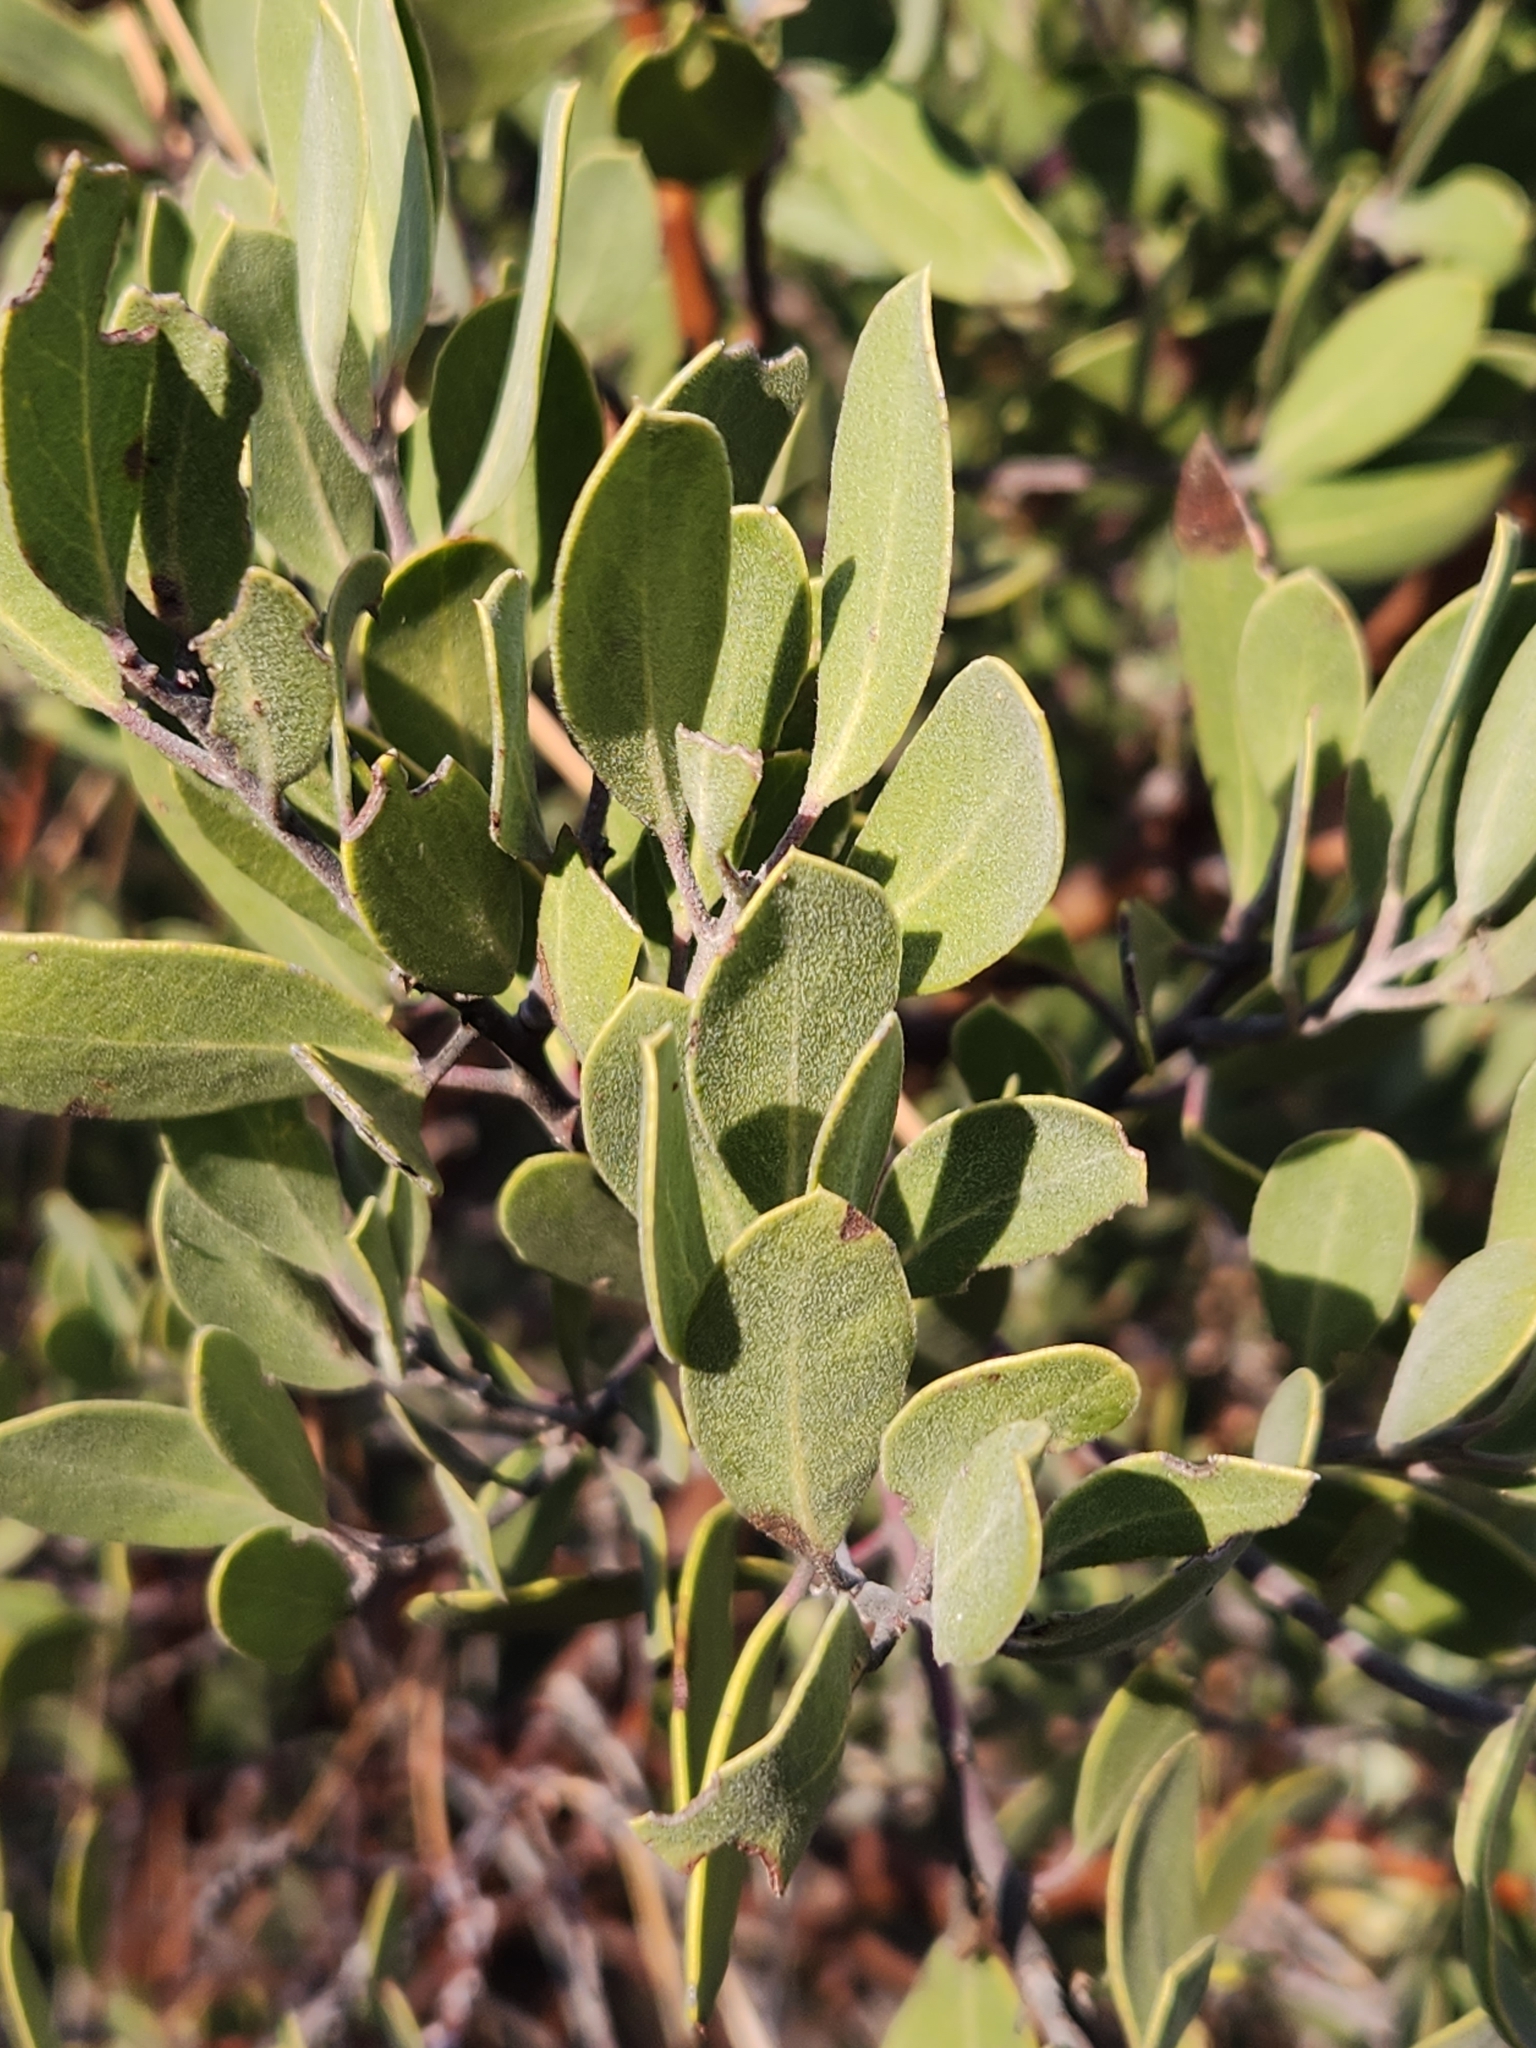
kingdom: Plantae
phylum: Tracheophyta
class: Magnoliopsida
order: Ericales
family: Ericaceae
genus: Arctostaphylos
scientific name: Arctostaphylos pungens
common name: Mexican manzanita
